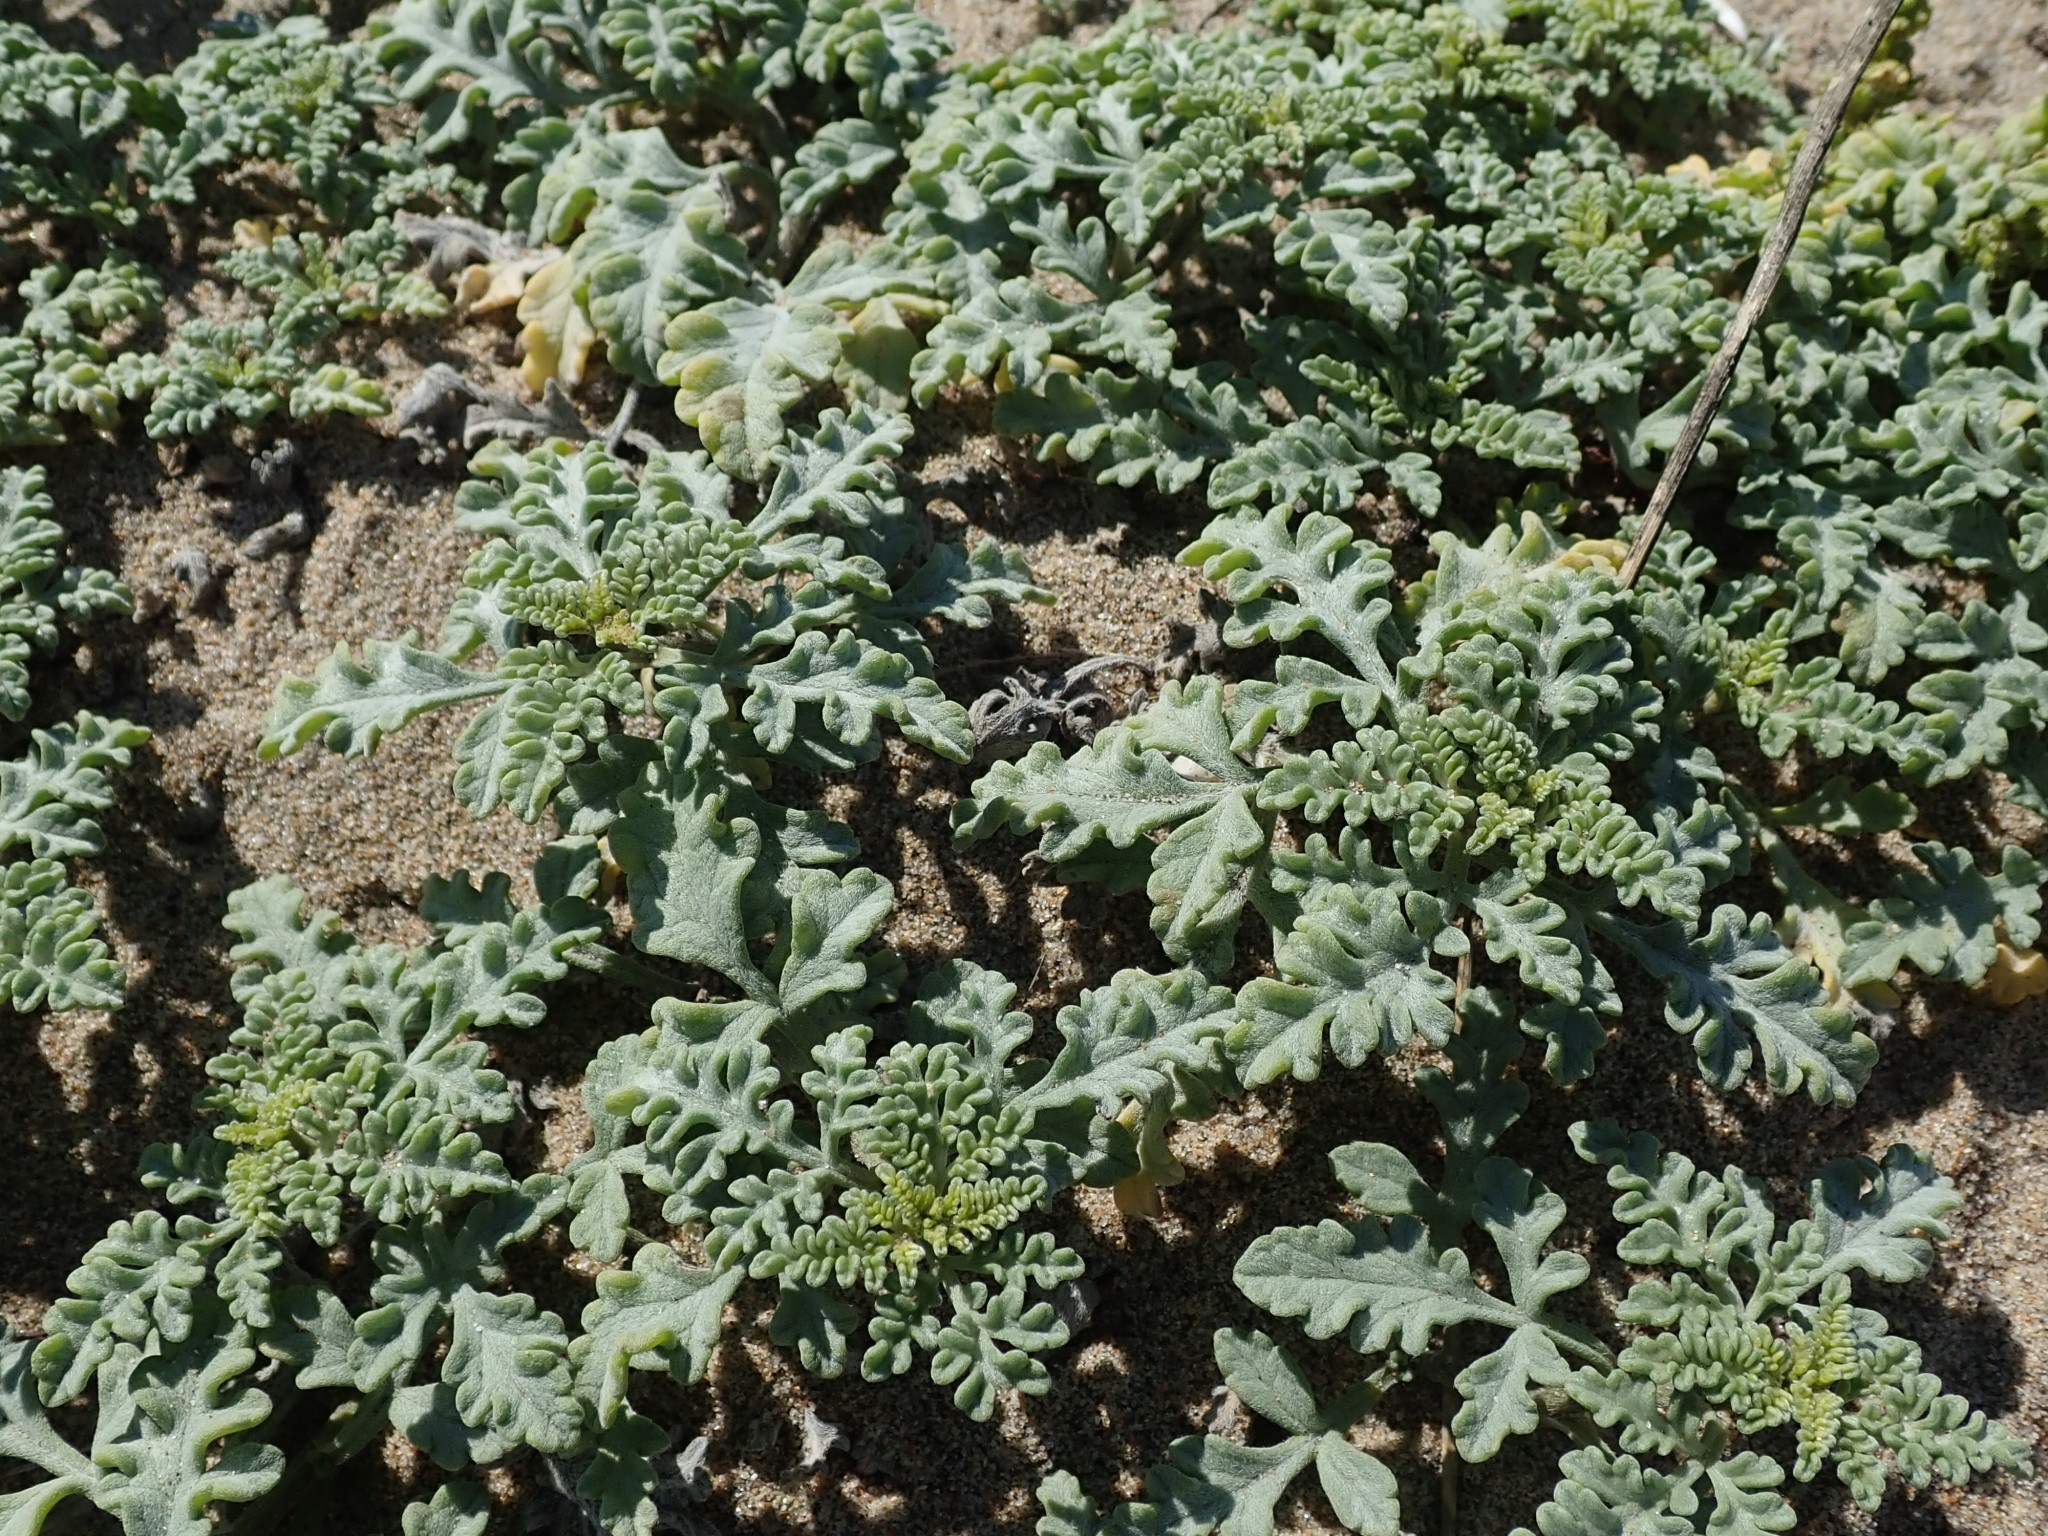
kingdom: Plantae
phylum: Tracheophyta
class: Magnoliopsida
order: Asterales
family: Asteraceae
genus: Ambrosia
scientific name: Ambrosia chamissonis
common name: Beachbur
